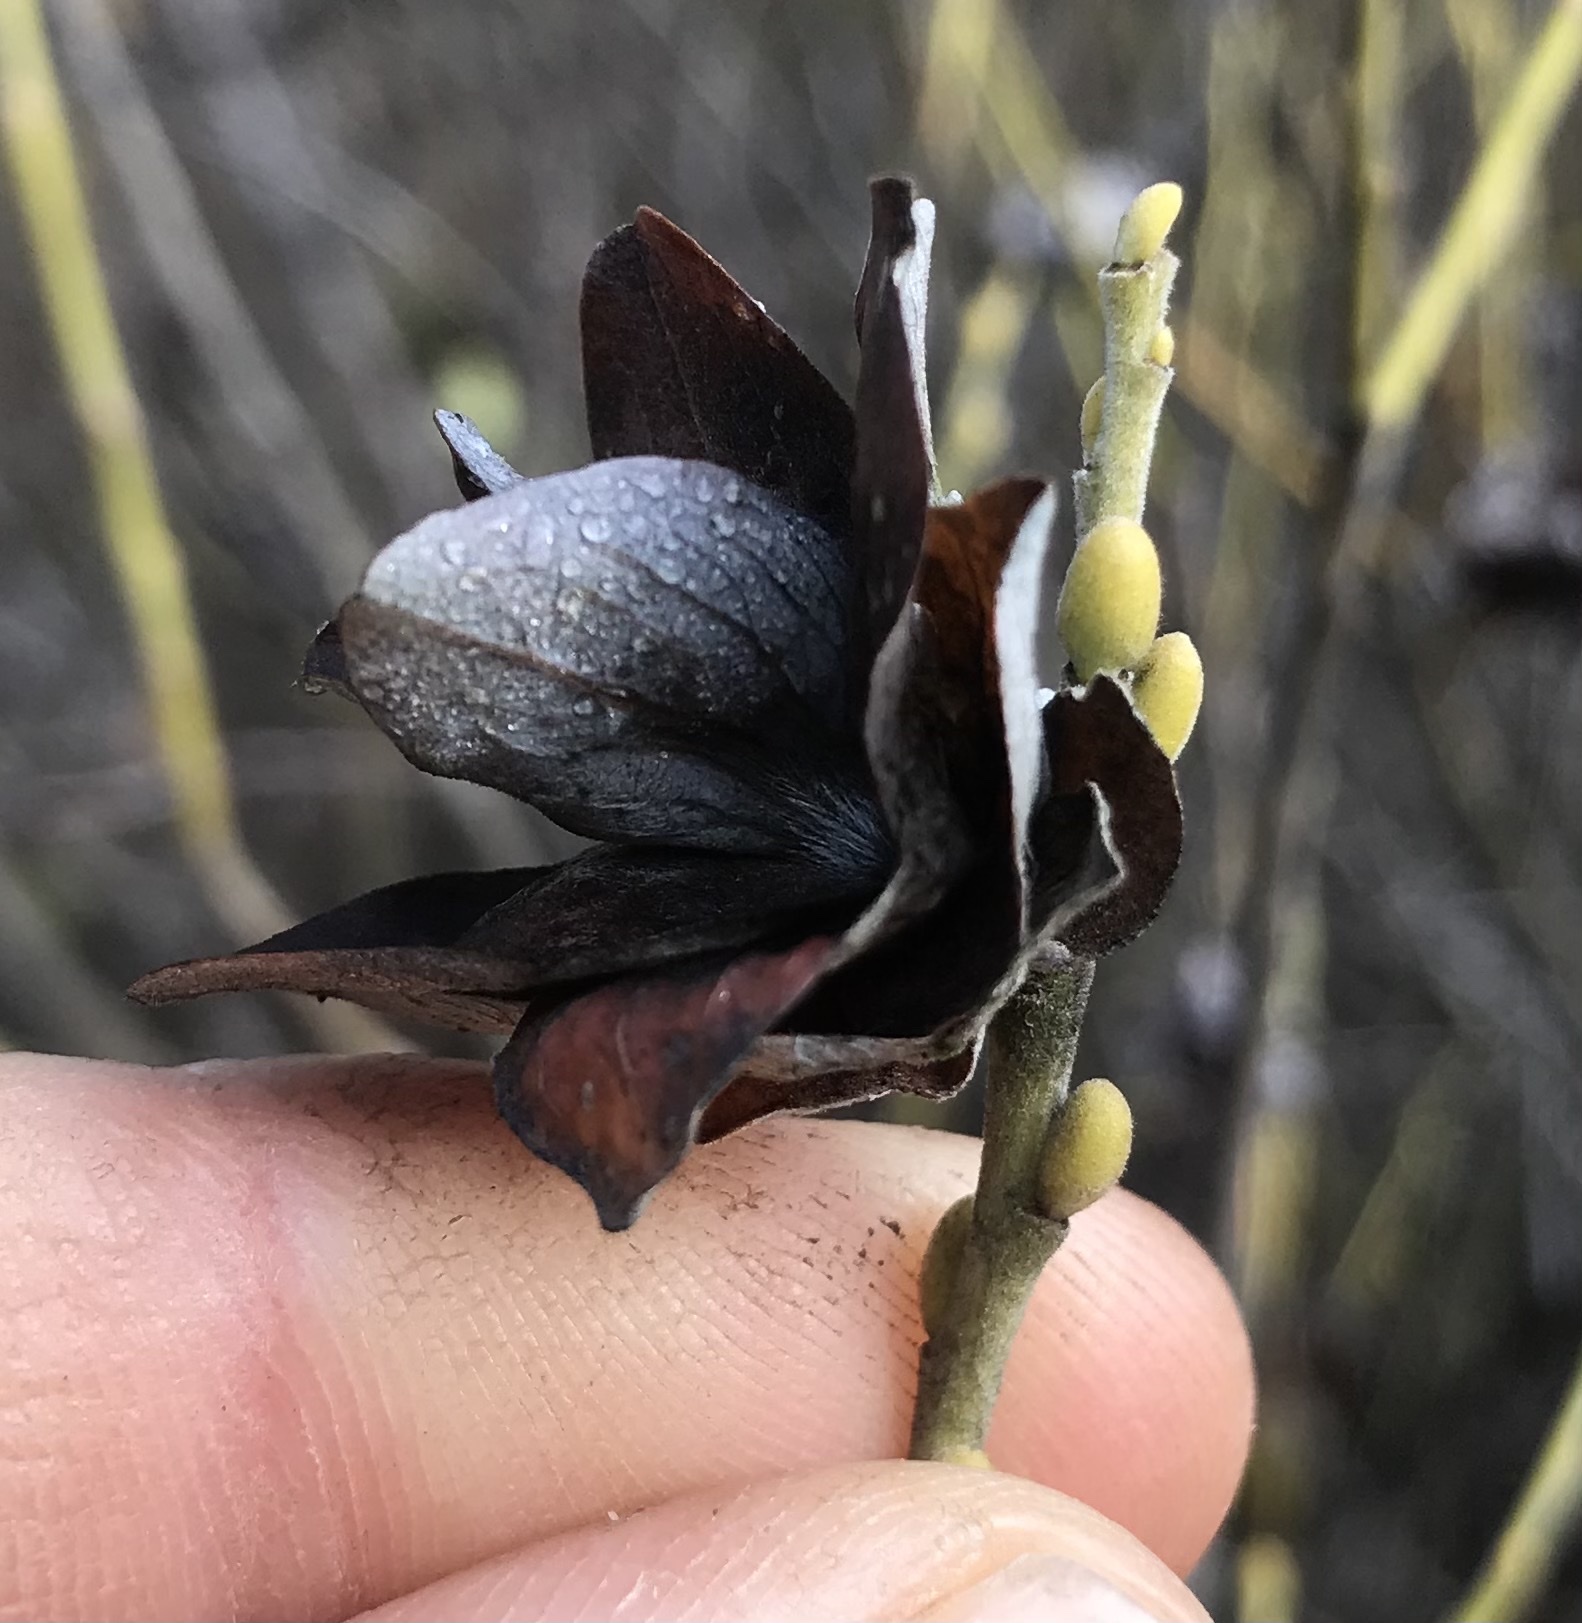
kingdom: Animalia
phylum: Arthropoda
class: Insecta
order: Diptera
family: Cecidomyiidae
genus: Rabdophaga
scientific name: Rabdophaga salicisbrassicoides
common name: Willow cabbagegall midge
